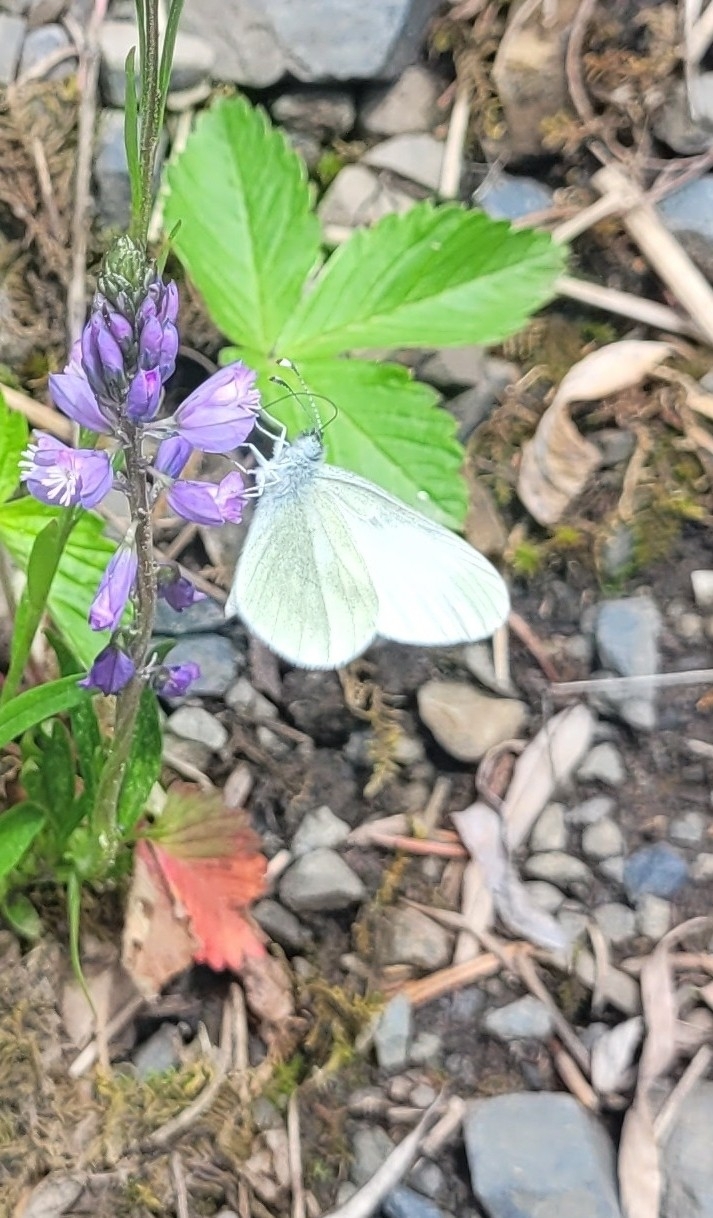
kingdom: Animalia
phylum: Arthropoda
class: Insecta
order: Lepidoptera
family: Pieridae
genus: Leptidea
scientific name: Leptidea
